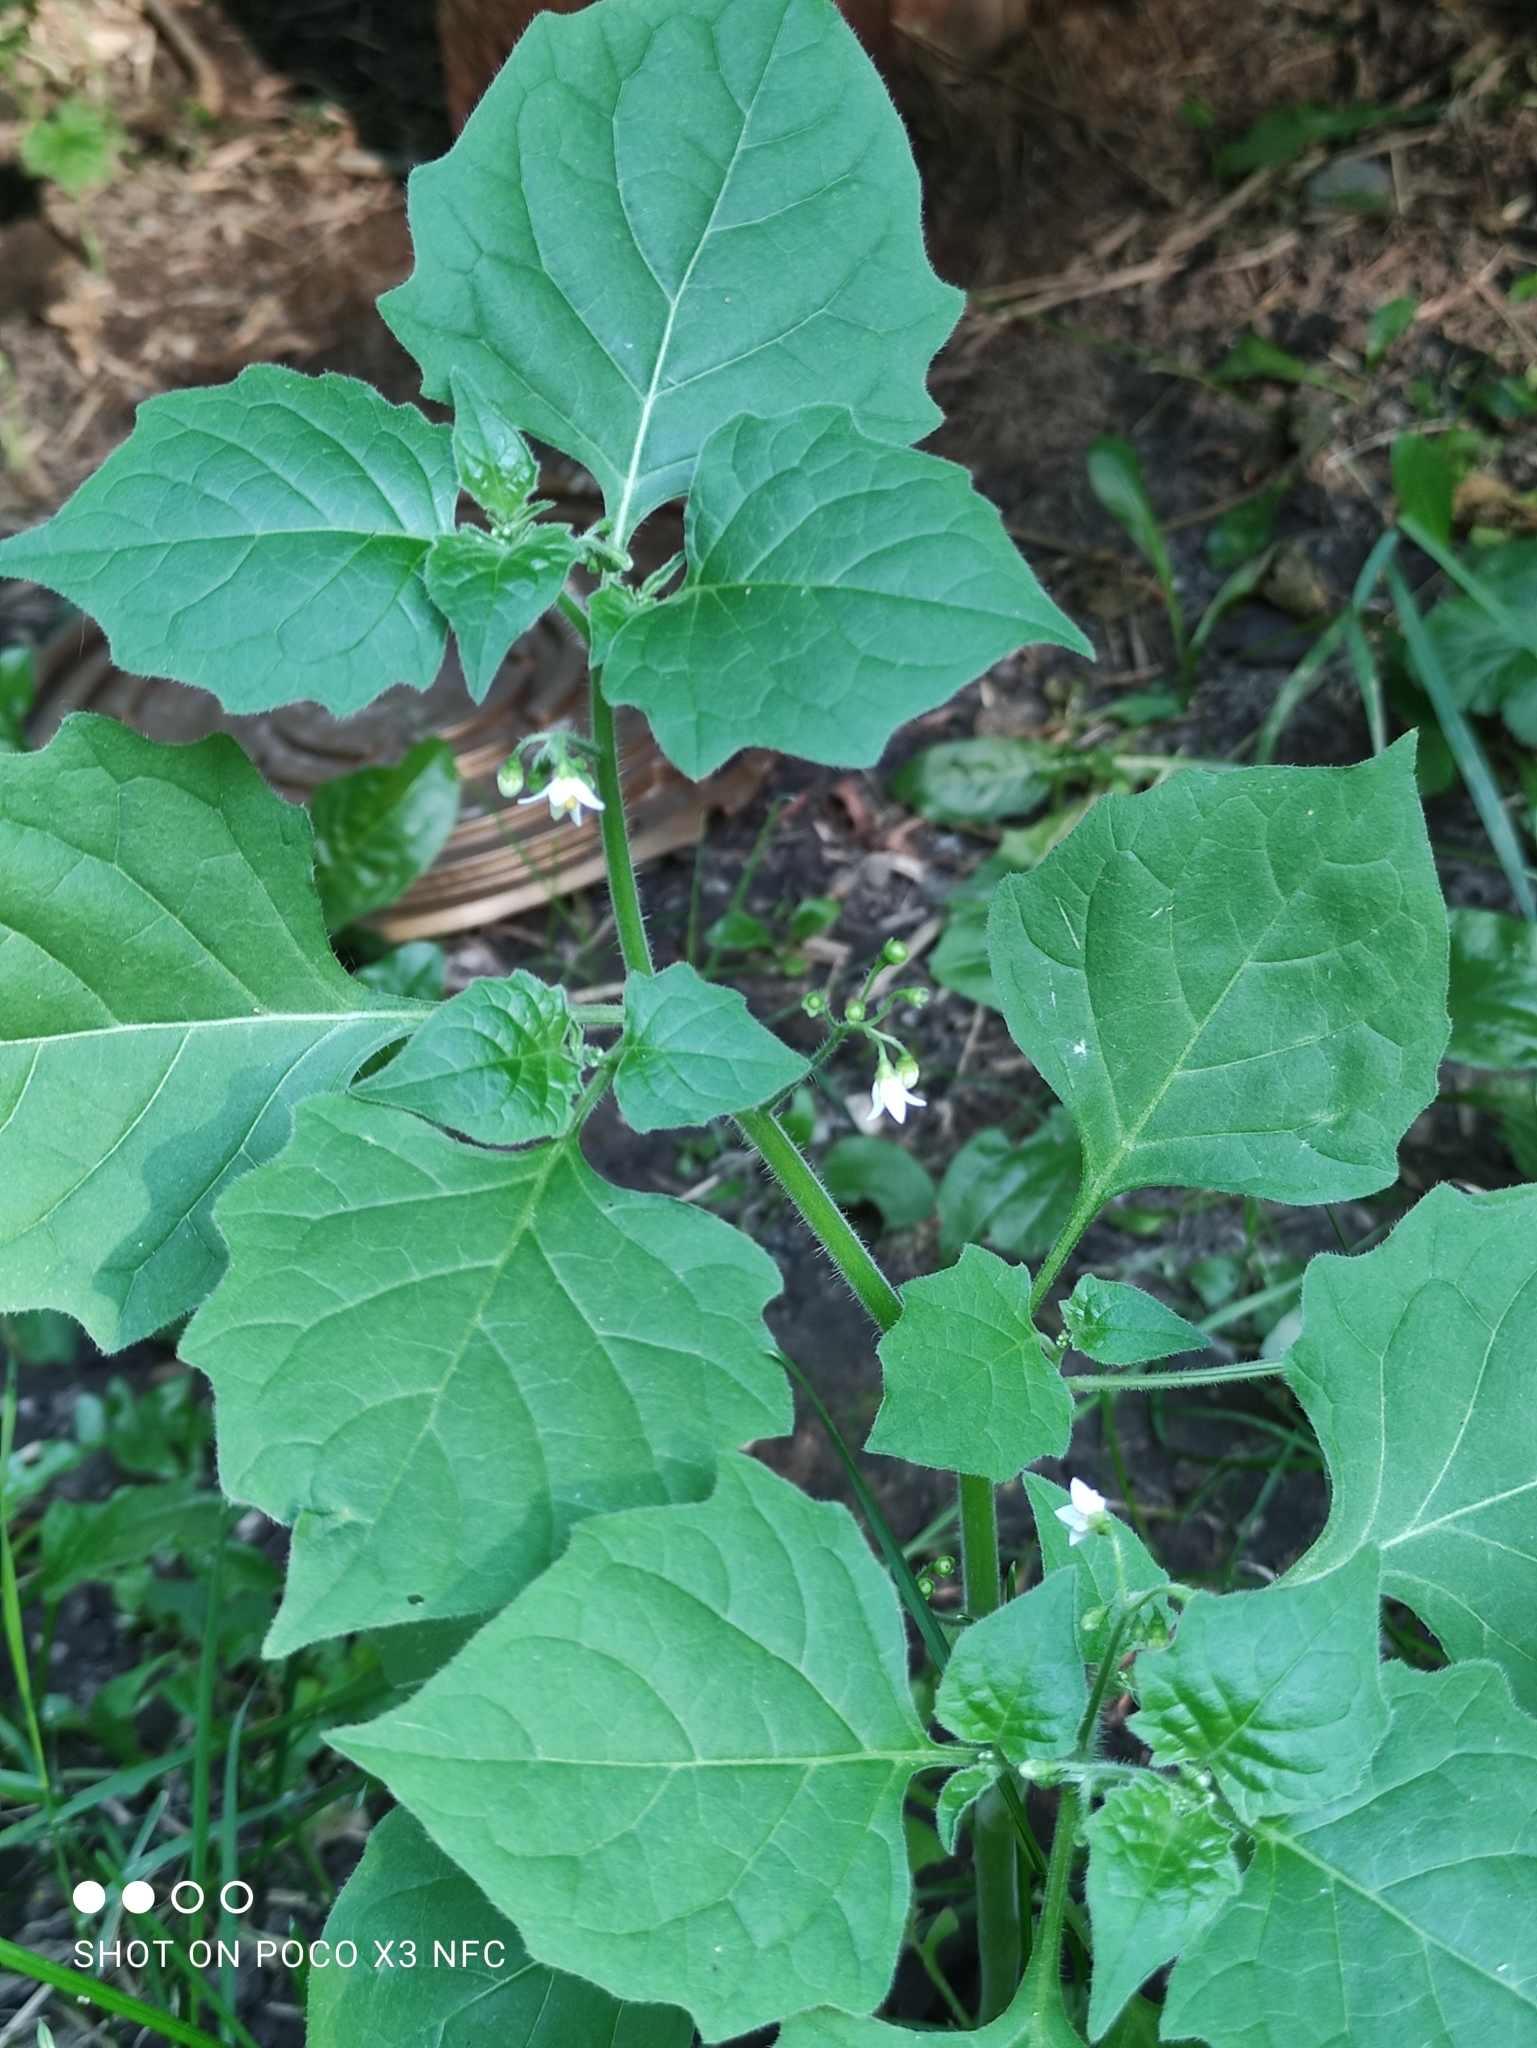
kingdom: Plantae
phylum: Tracheophyta
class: Magnoliopsida
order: Solanales
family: Solanaceae
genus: Solanum
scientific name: Solanum nigrum
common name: Black nightshade
